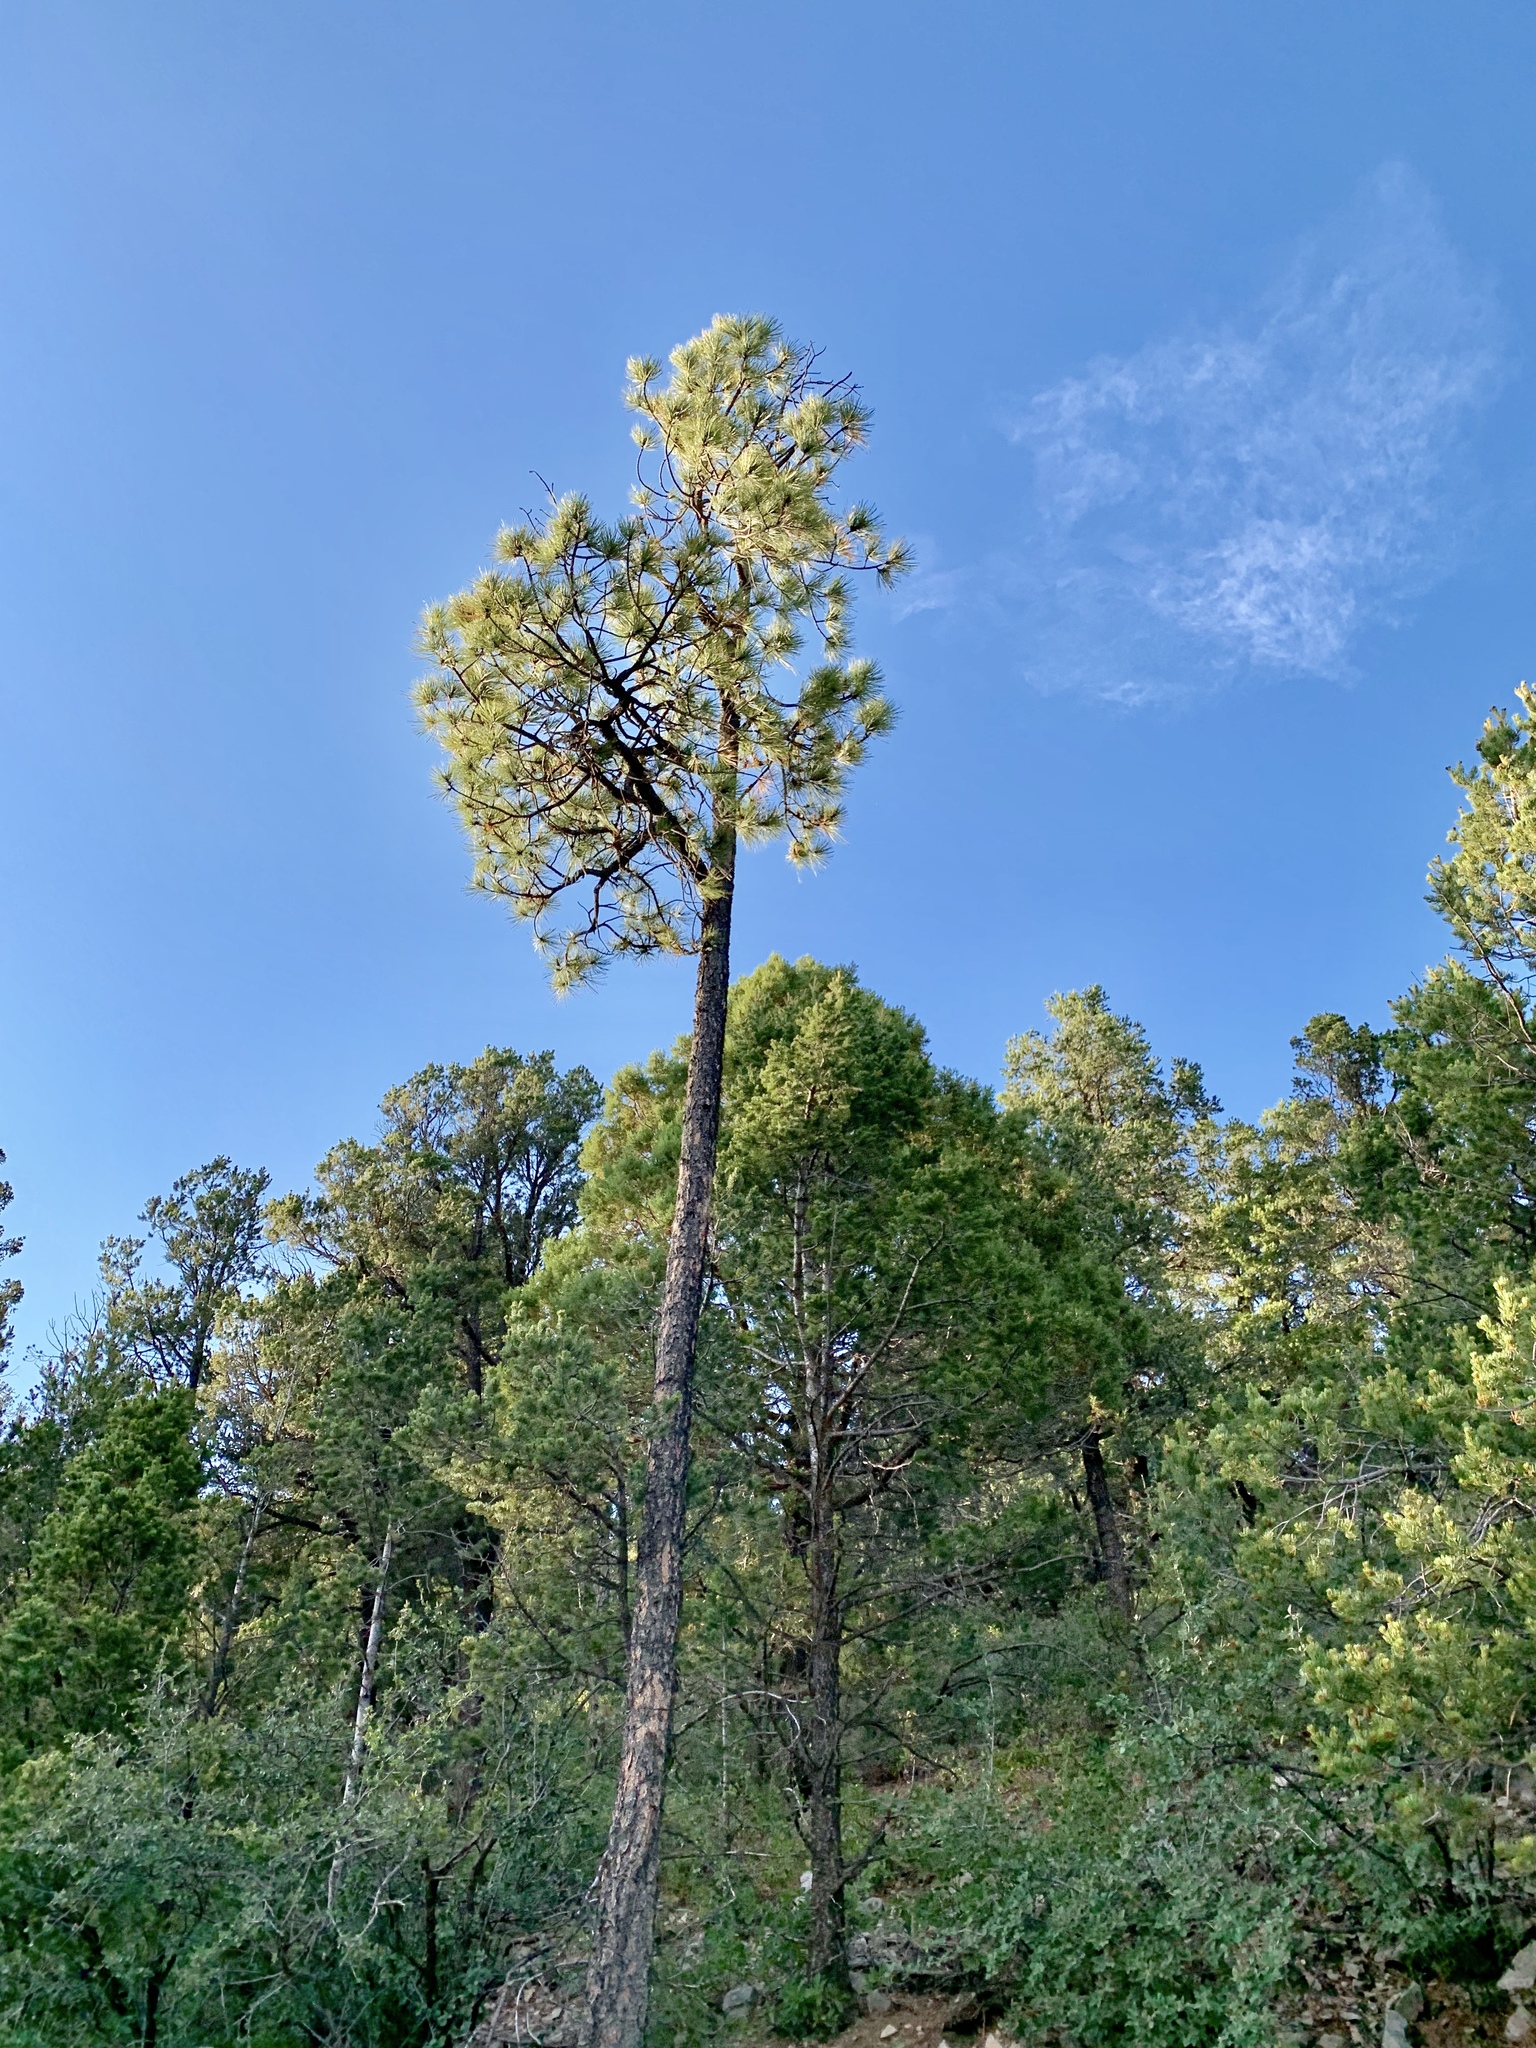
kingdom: Plantae
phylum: Tracheophyta
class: Pinopsida
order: Pinales
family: Pinaceae
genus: Pinus
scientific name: Pinus ponderosa
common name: Western yellow-pine
